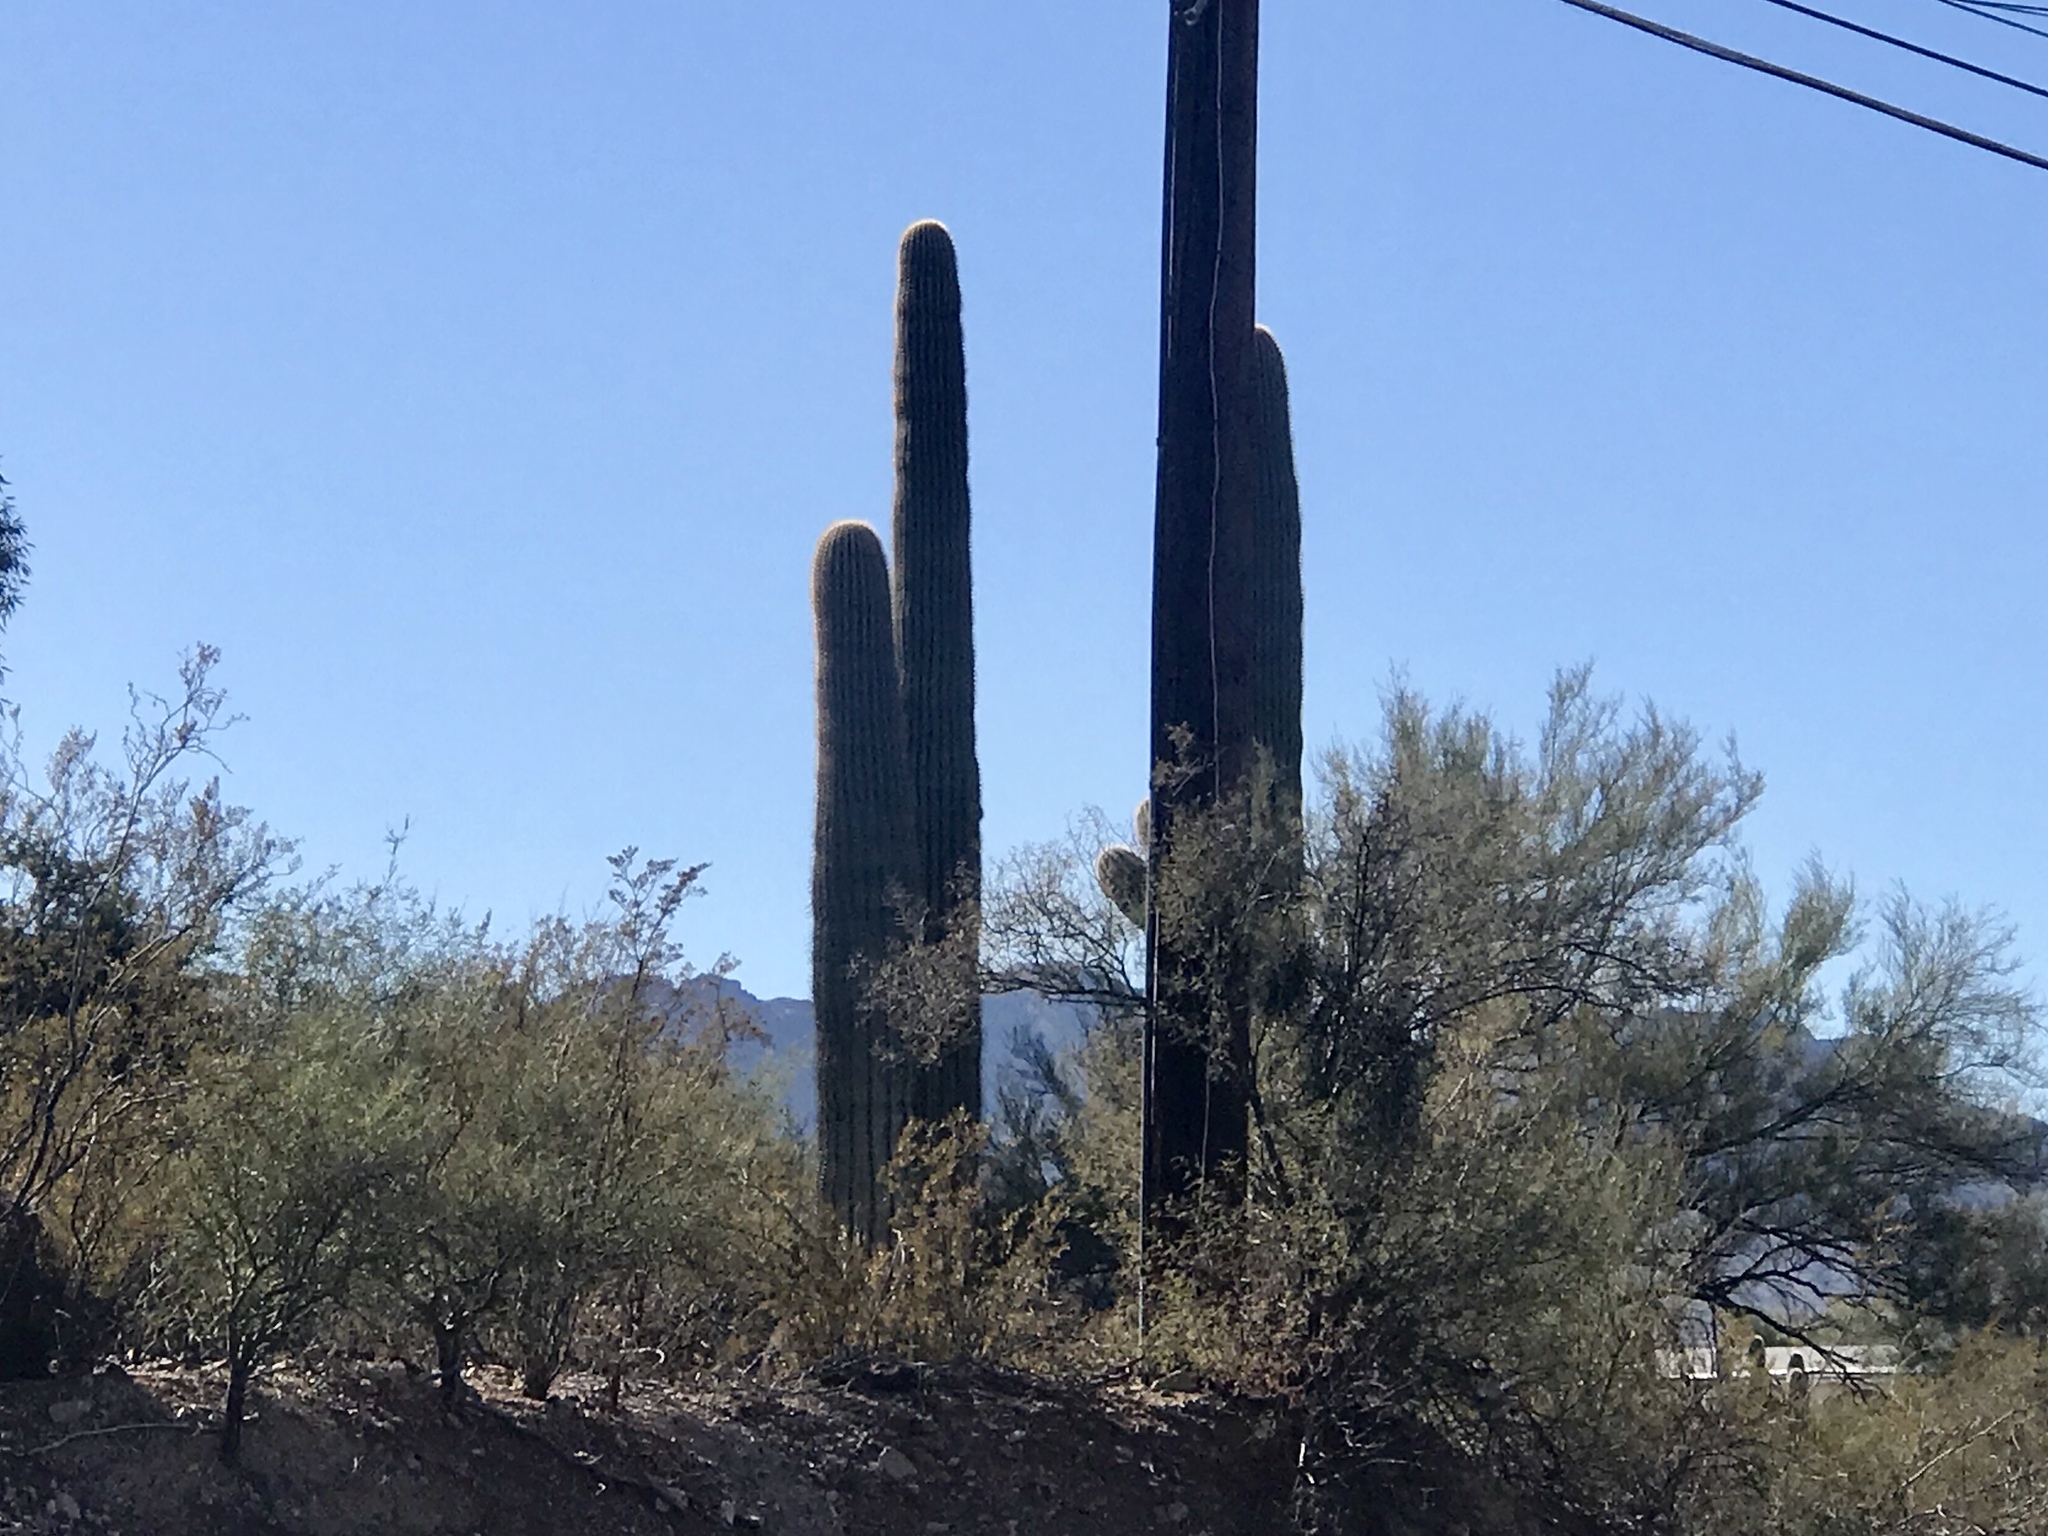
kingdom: Plantae
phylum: Tracheophyta
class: Magnoliopsida
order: Caryophyllales
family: Cactaceae
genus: Carnegiea
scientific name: Carnegiea gigantea
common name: Saguaro
